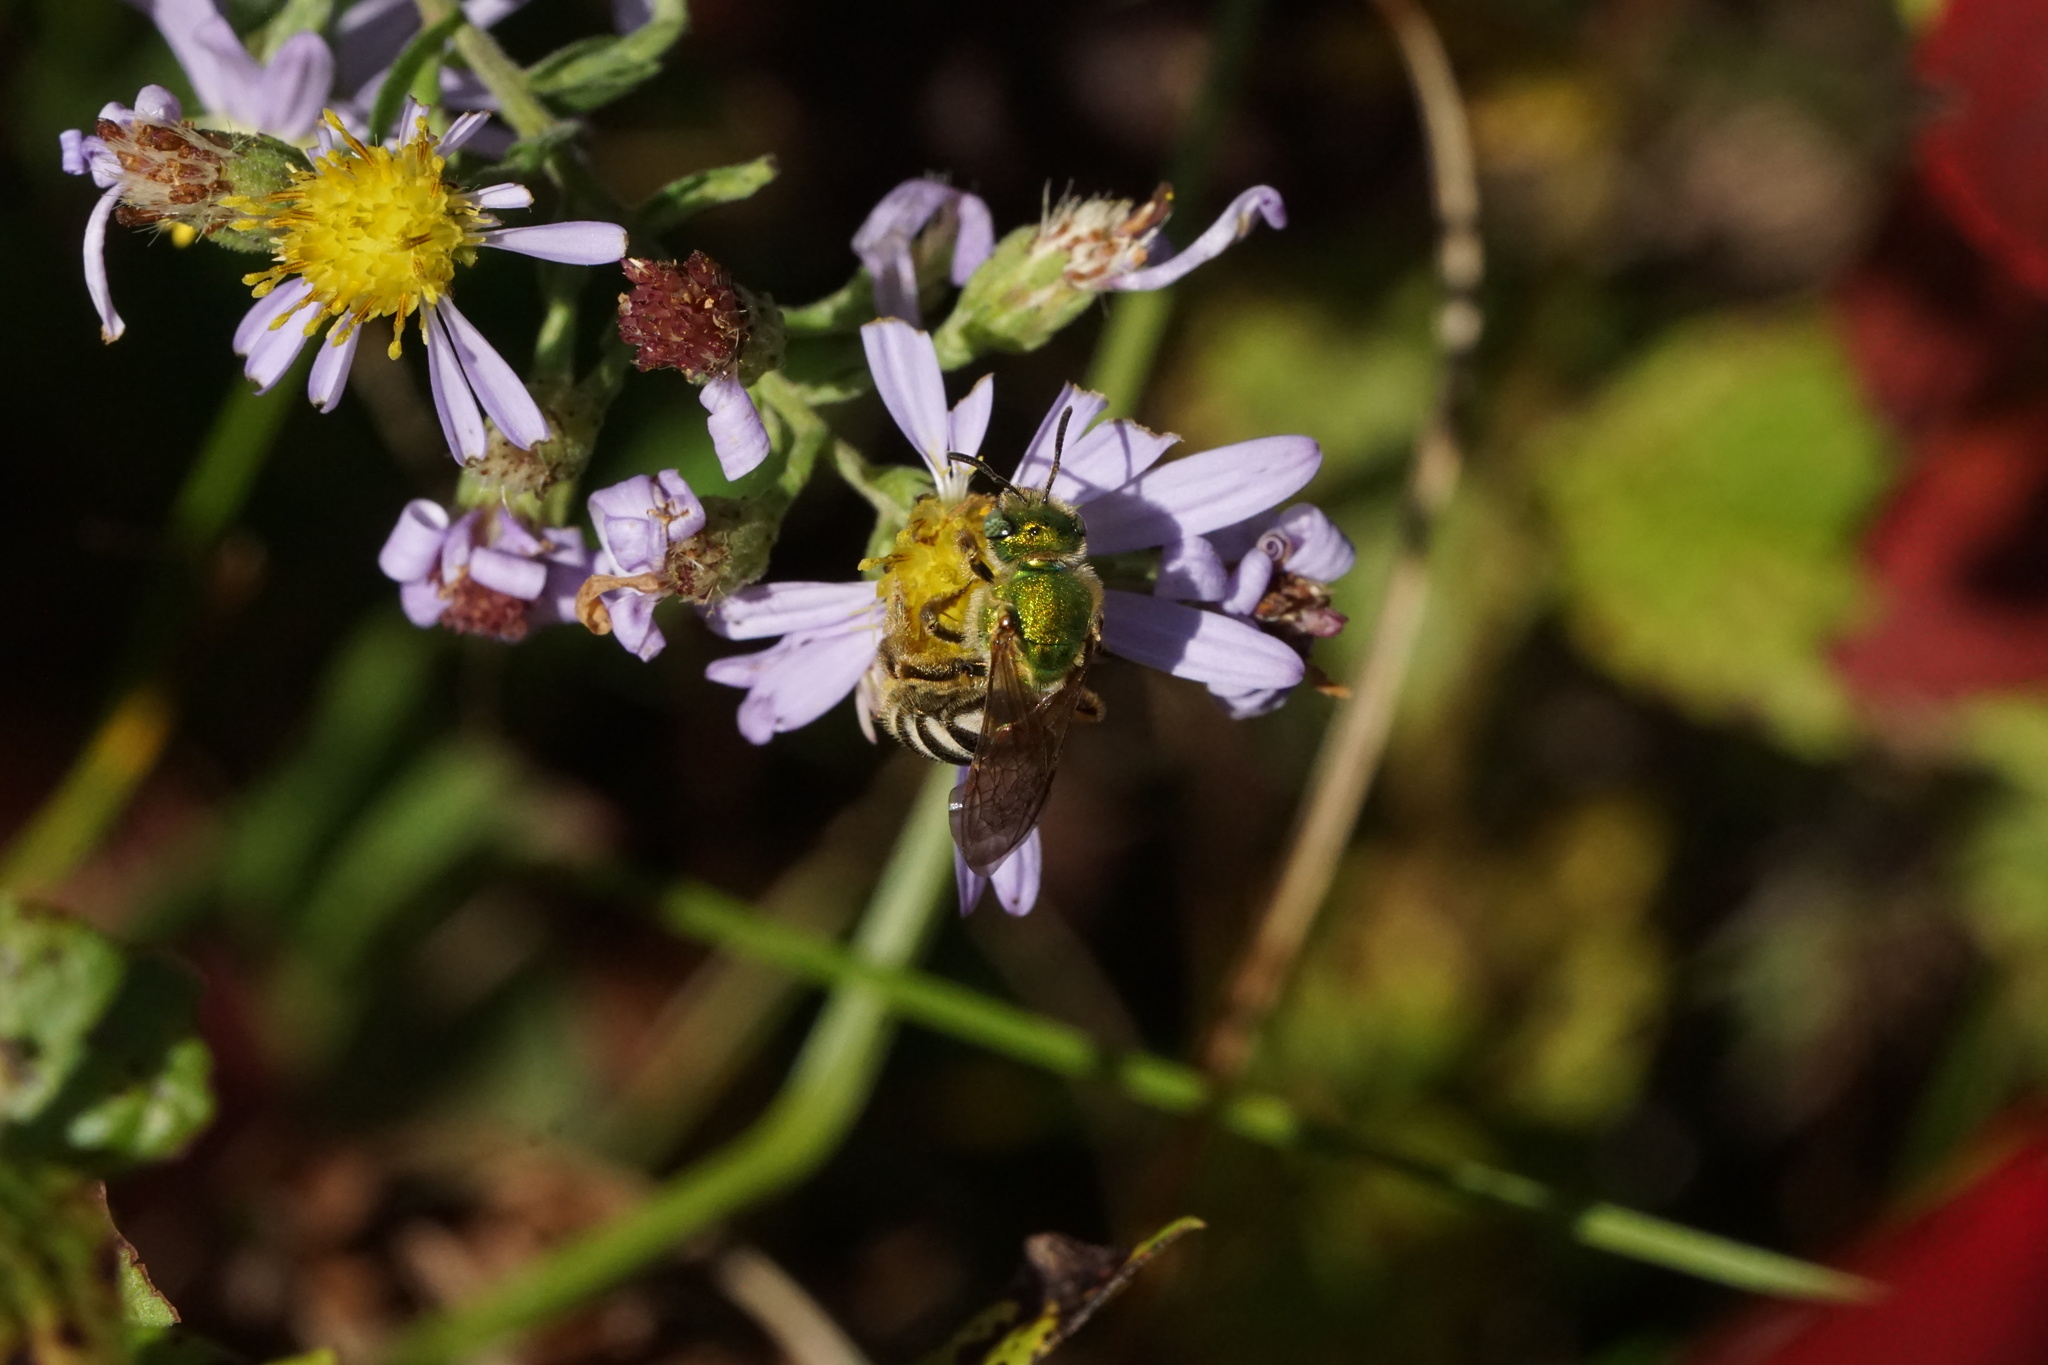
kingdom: Animalia
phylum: Arthropoda
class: Insecta
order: Hymenoptera
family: Halictidae
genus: Agapostemon
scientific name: Agapostemon virescens
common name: Bicolored striped sweat bee
